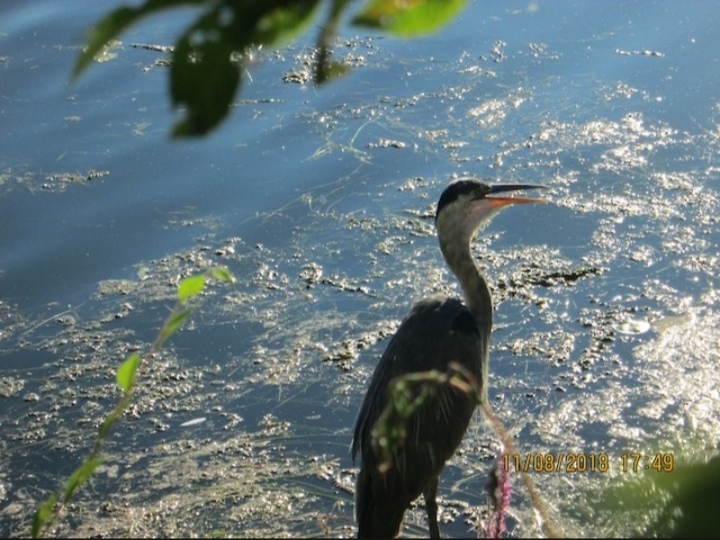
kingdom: Animalia
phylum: Chordata
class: Aves
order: Pelecaniformes
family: Ardeidae
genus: Ardea
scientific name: Ardea herodias
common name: Great blue heron
